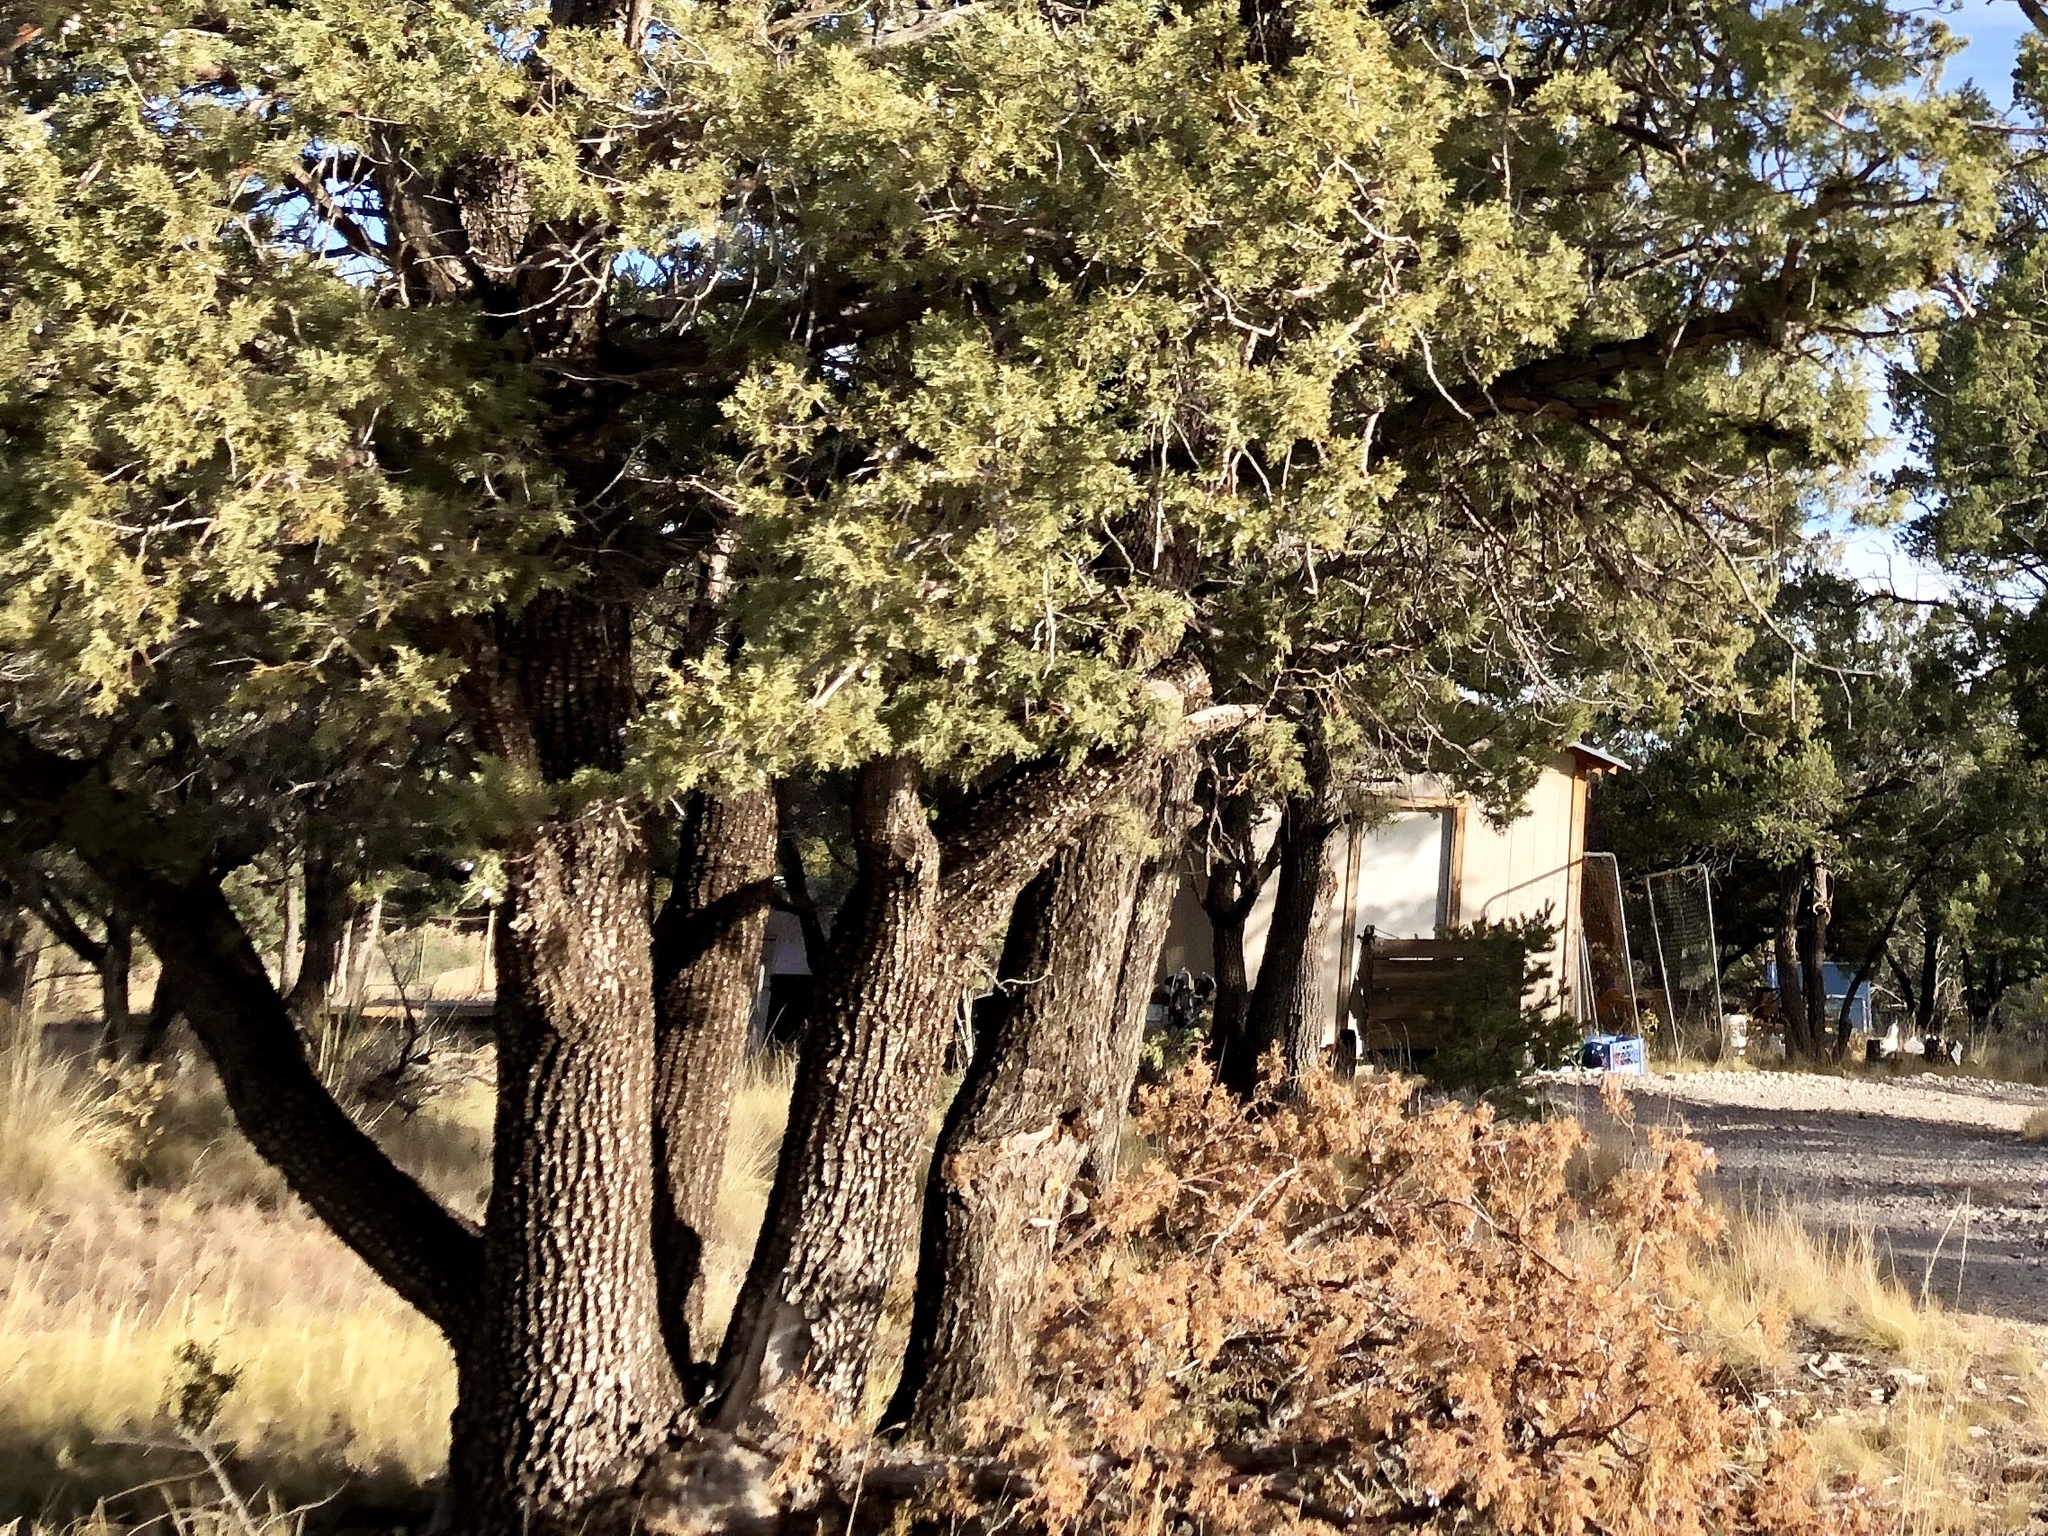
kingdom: Plantae
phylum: Tracheophyta
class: Pinopsida
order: Pinales
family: Cupressaceae
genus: Juniperus
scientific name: Juniperus deppeana
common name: Alligator juniper
